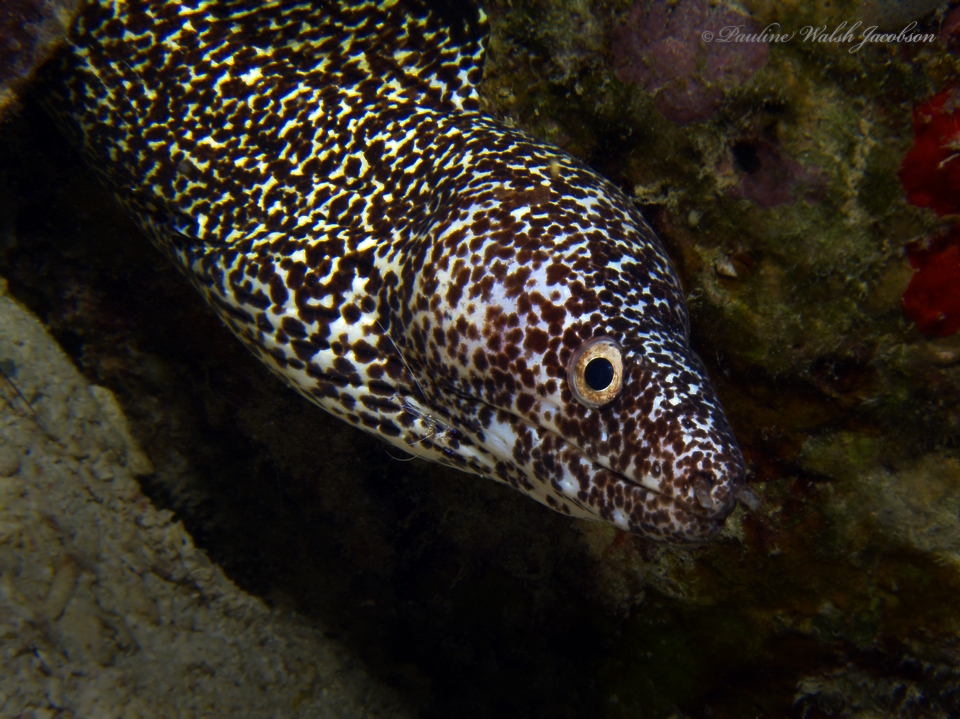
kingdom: Animalia
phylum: Chordata
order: Anguilliformes
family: Muraenidae
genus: Gymnothorax
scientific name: Gymnothorax moringa
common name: Spotted moray
